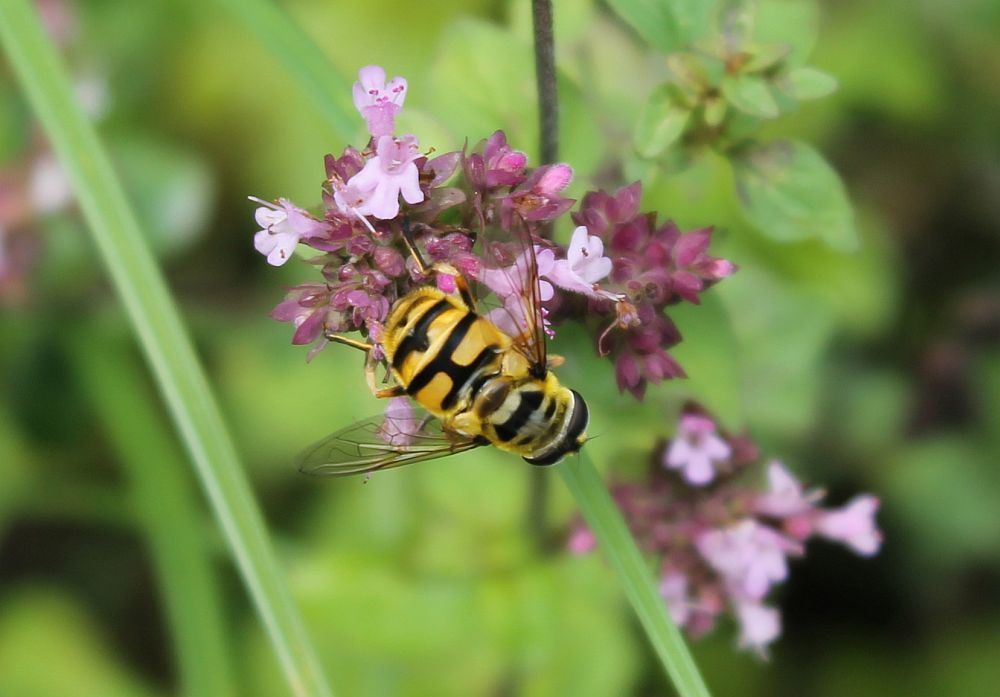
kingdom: Animalia
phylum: Arthropoda
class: Insecta
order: Diptera
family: Syrphidae
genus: Myathropa
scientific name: Myathropa florea
